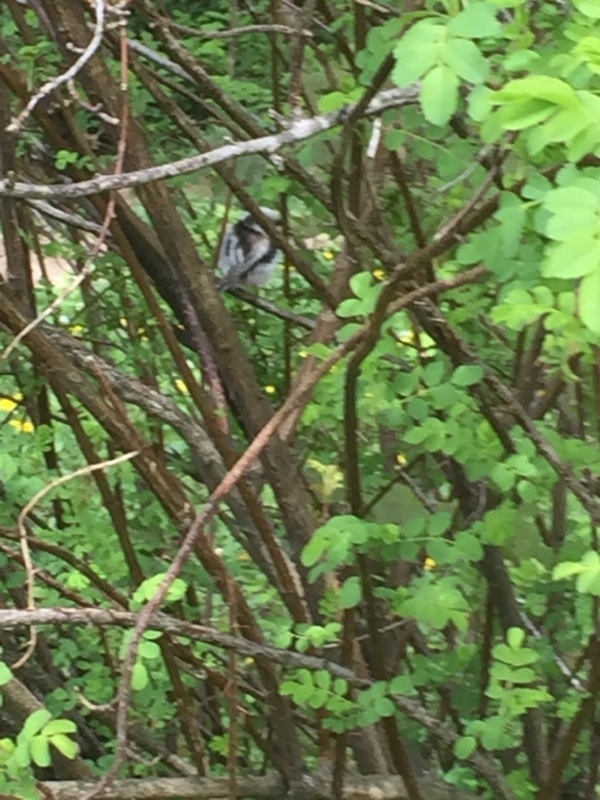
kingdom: Animalia
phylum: Chordata
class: Aves
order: Passeriformes
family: Aegithalidae
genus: Aegithalos
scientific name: Aegithalos caudatus
